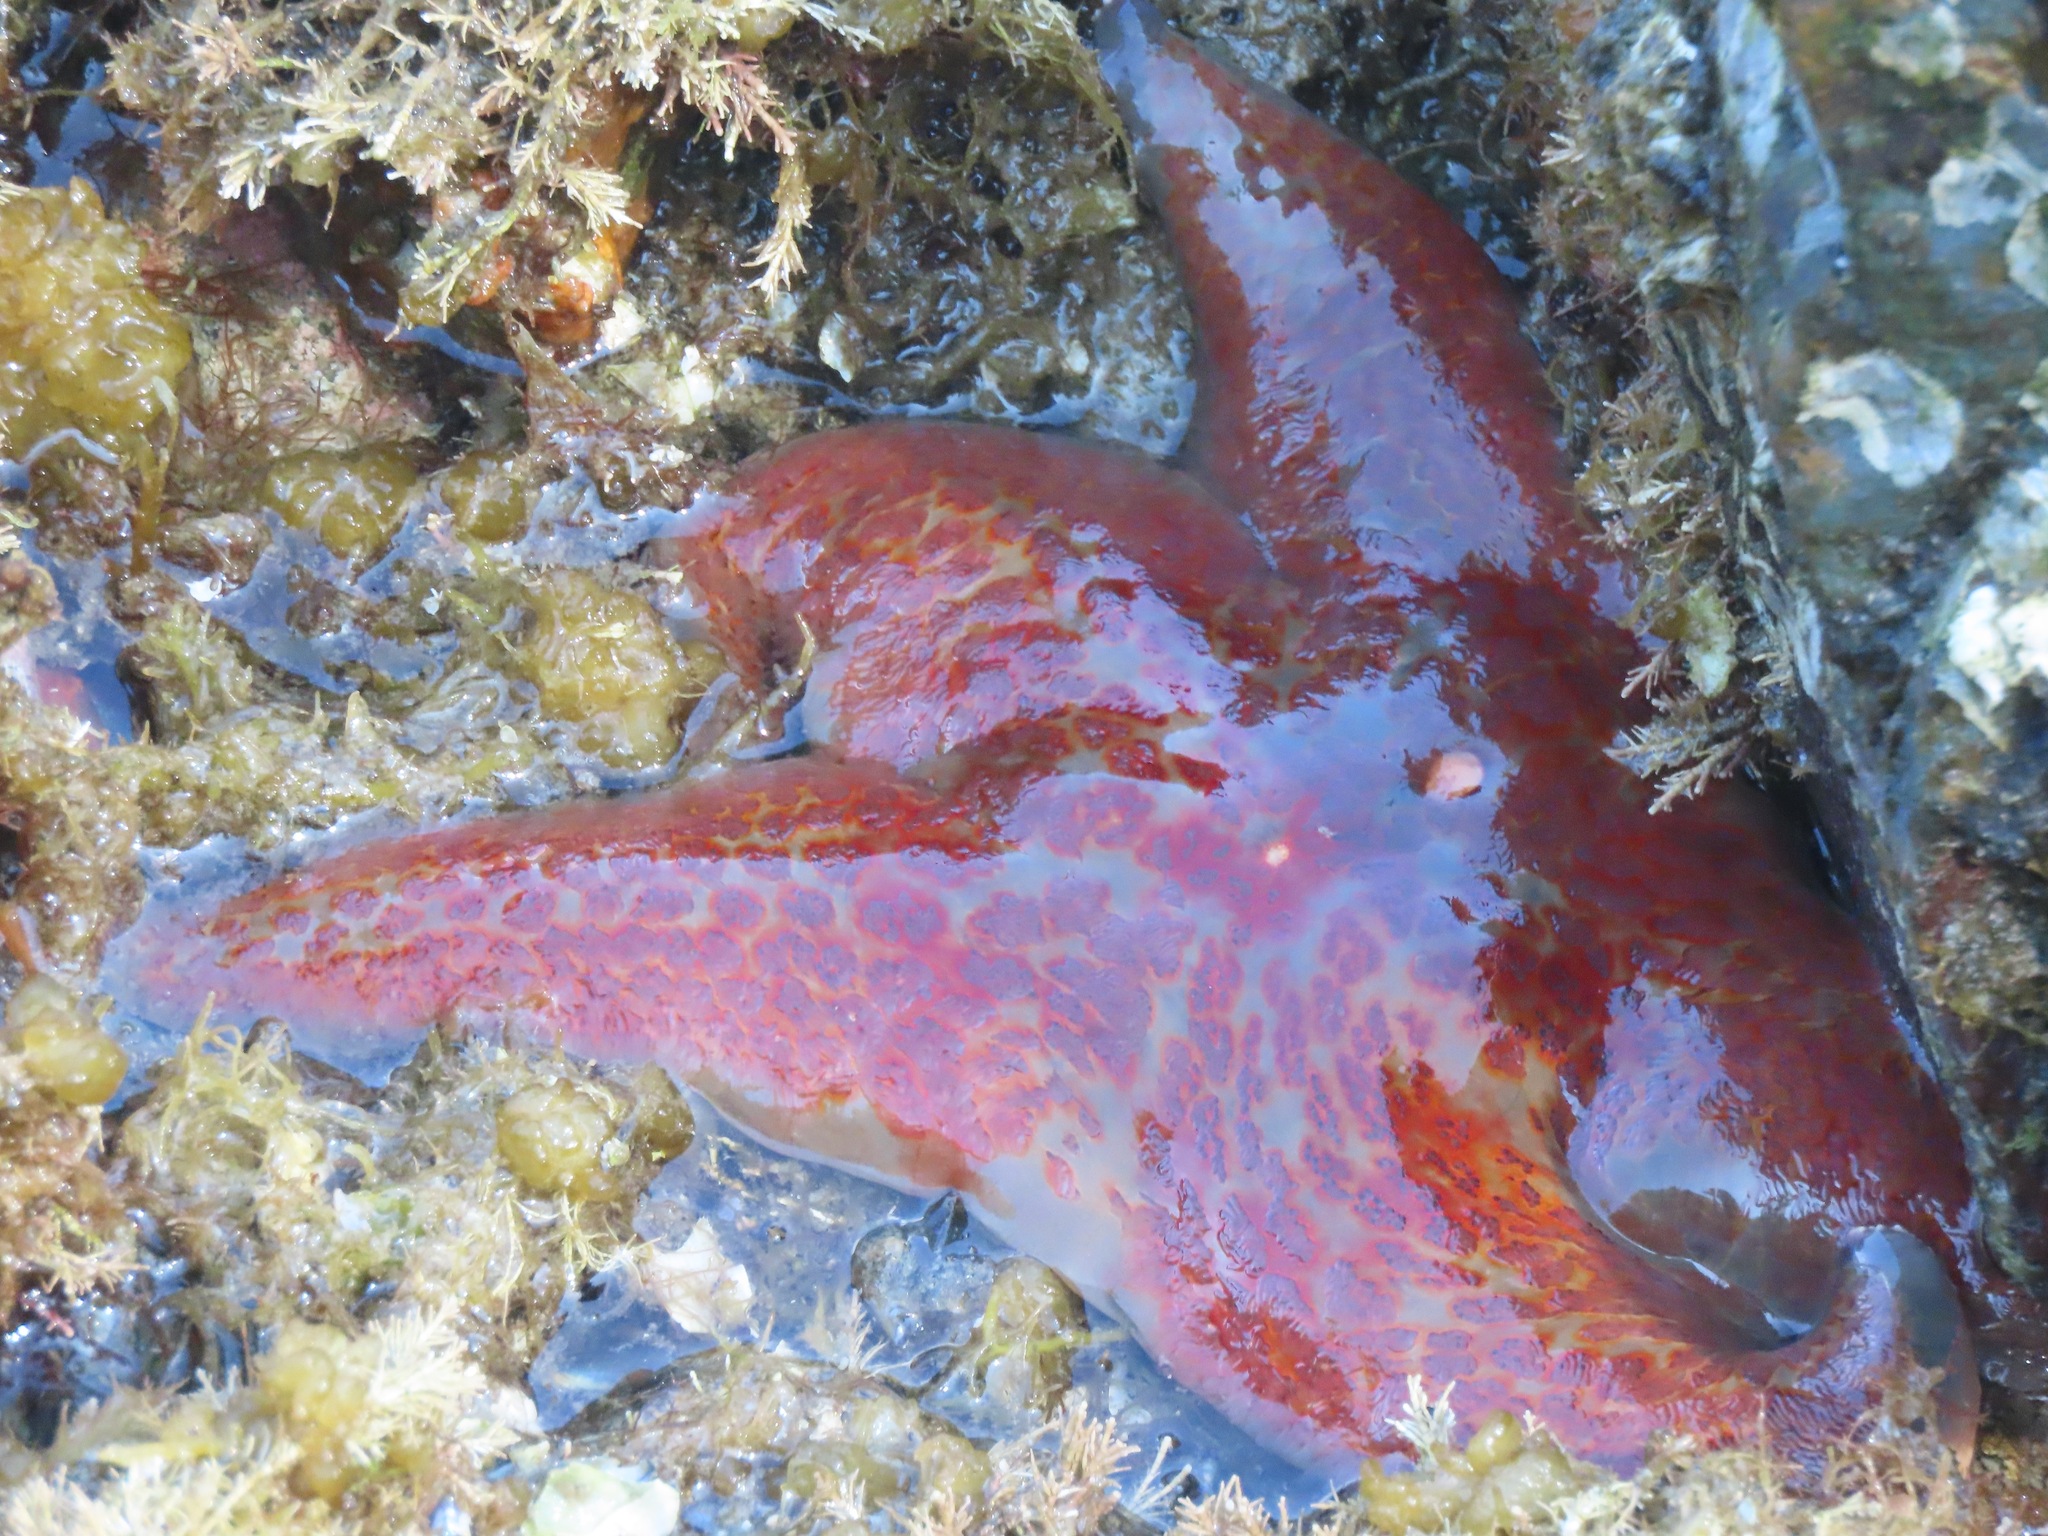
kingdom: Animalia
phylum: Echinodermata
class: Asteroidea
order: Valvatida
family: Asteropseidae
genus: Dermasterias
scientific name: Dermasterias imbricata
